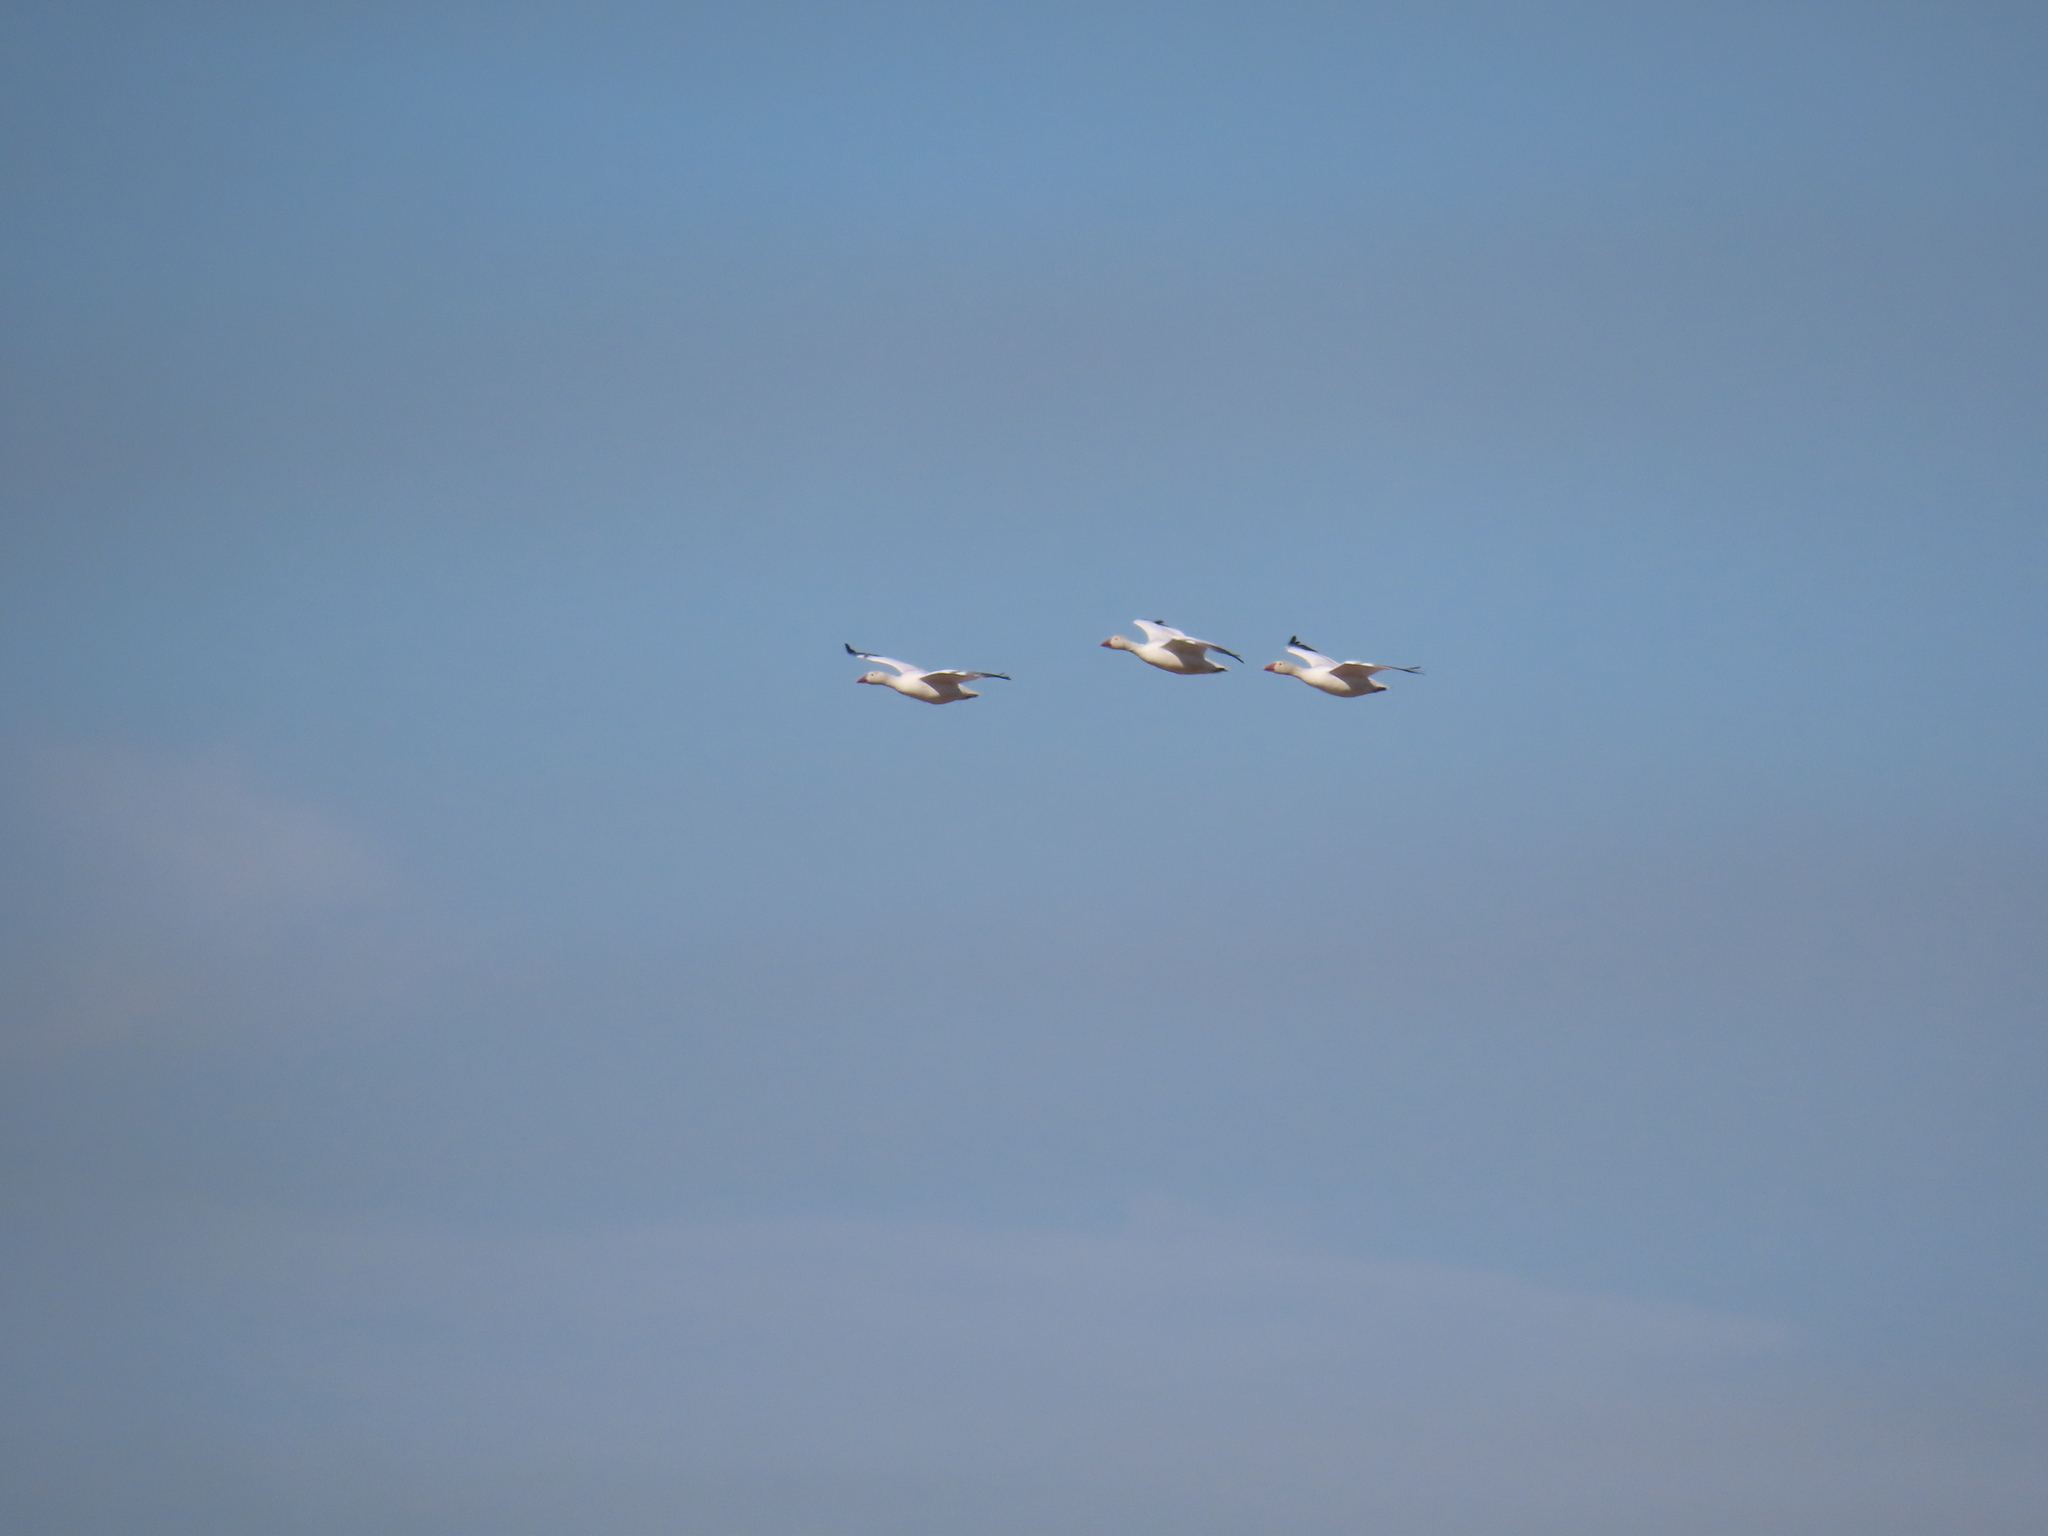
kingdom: Animalia
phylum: Chordata
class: Aves
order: Anseriformes
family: Anatidae
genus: Anser
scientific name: Anser caerulescens
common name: Snow goose
